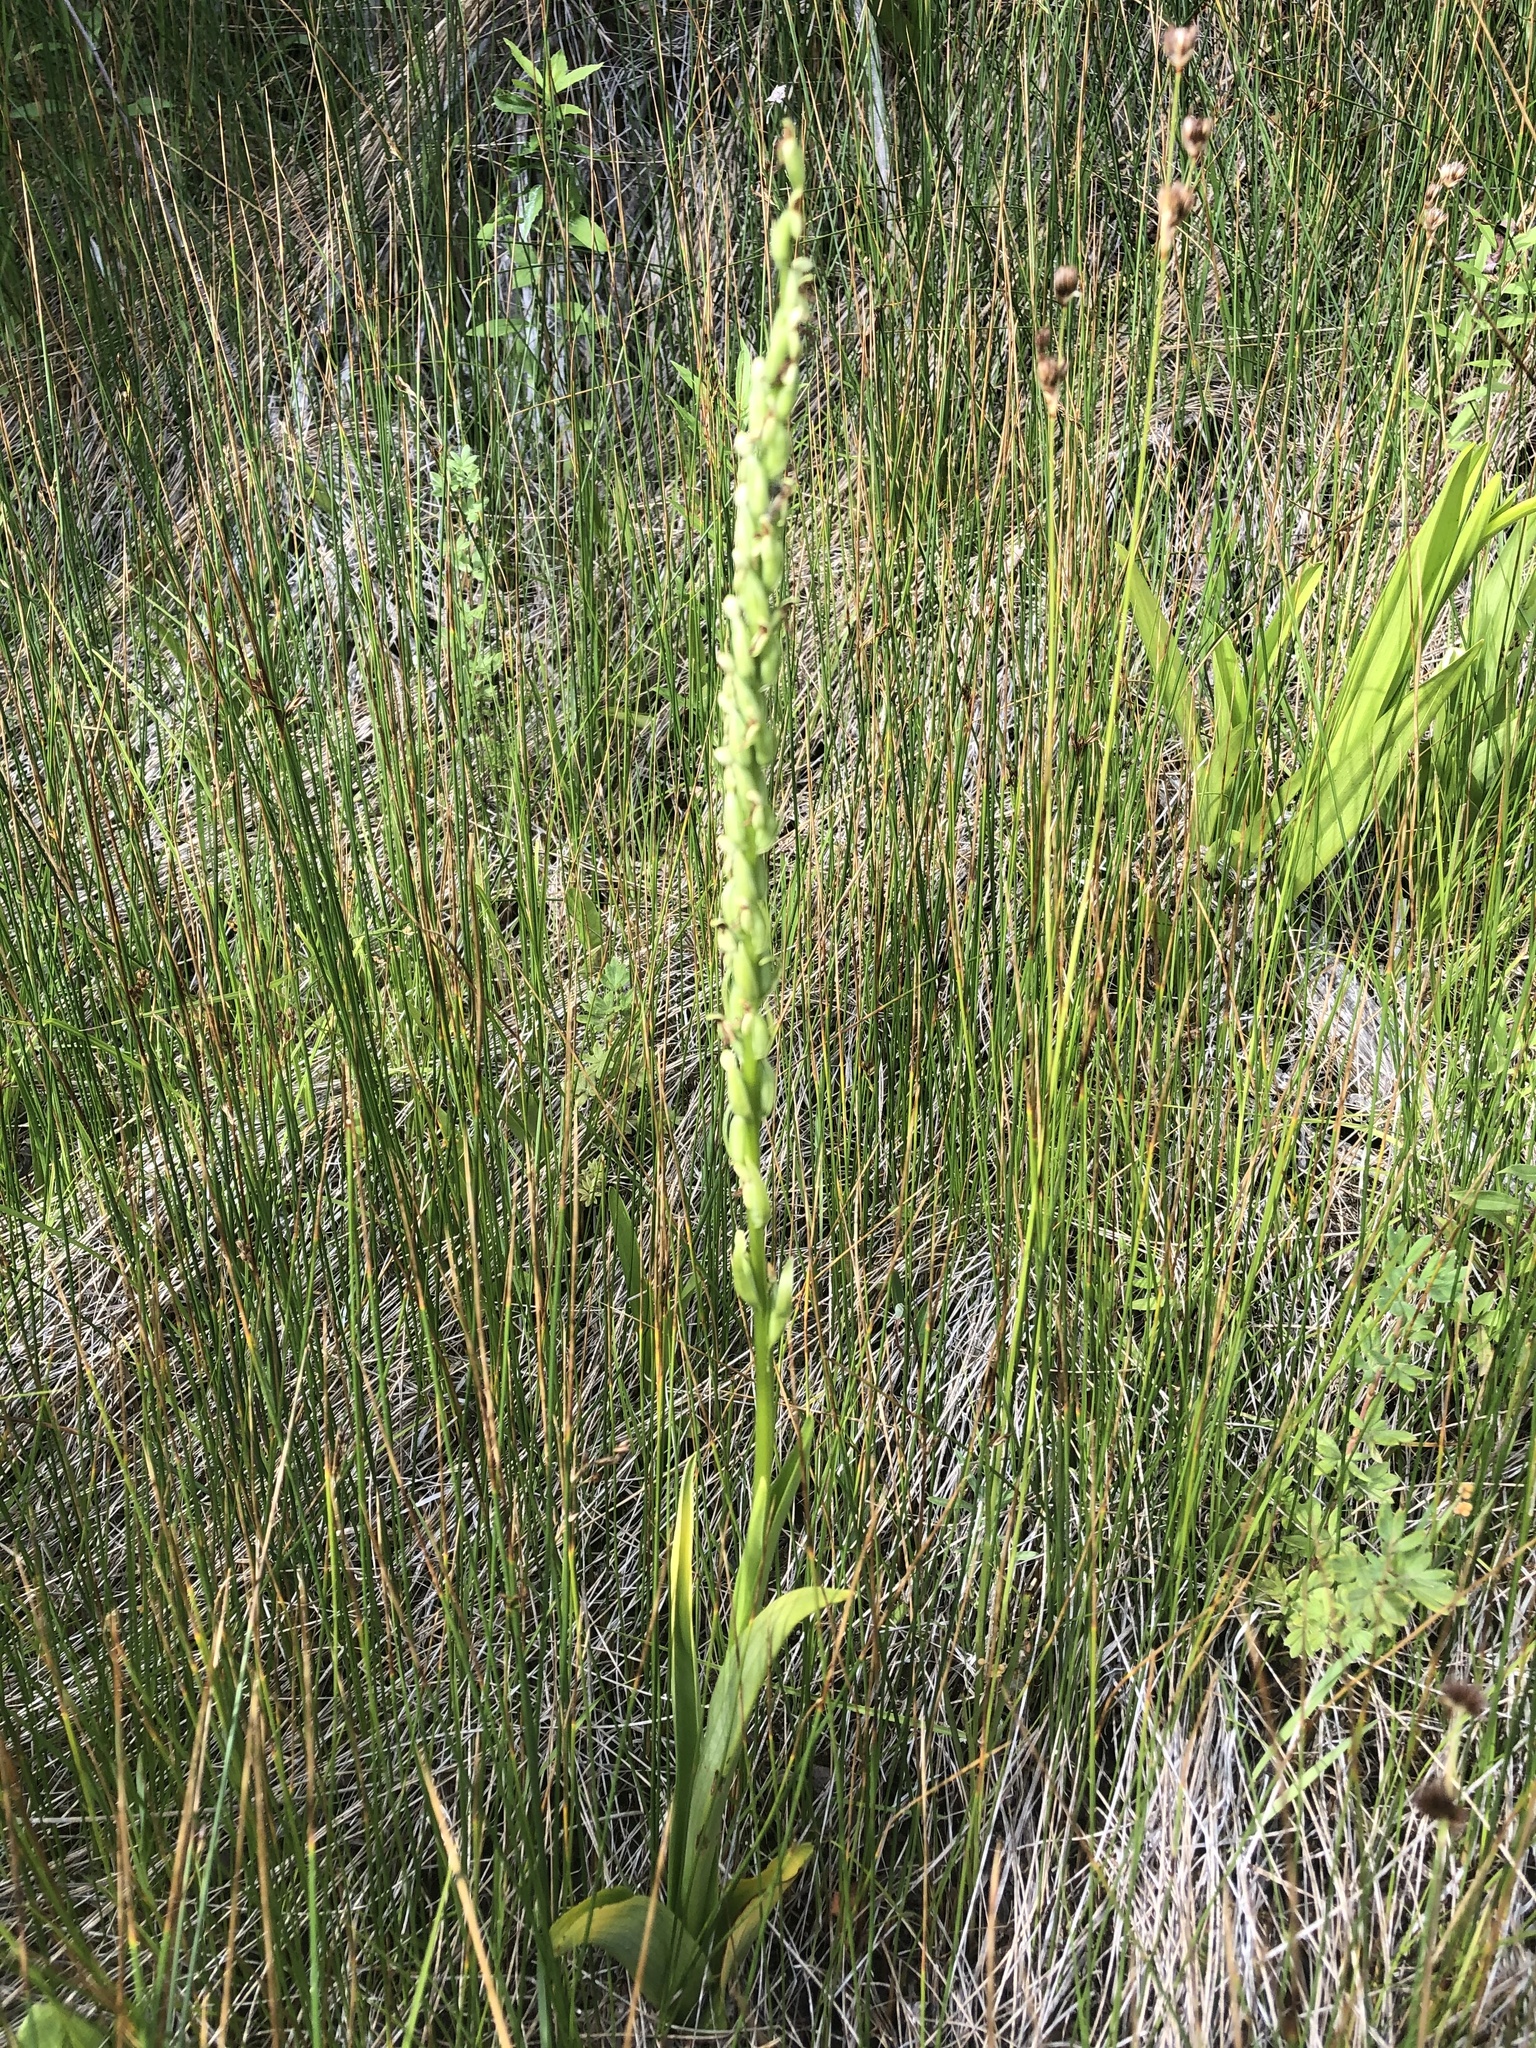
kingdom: Plantae
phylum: Tracheophyta
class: Liliopsida
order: Asparagales
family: Orchidaceae
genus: Platanthera
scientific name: Platanthera sparsiflora
